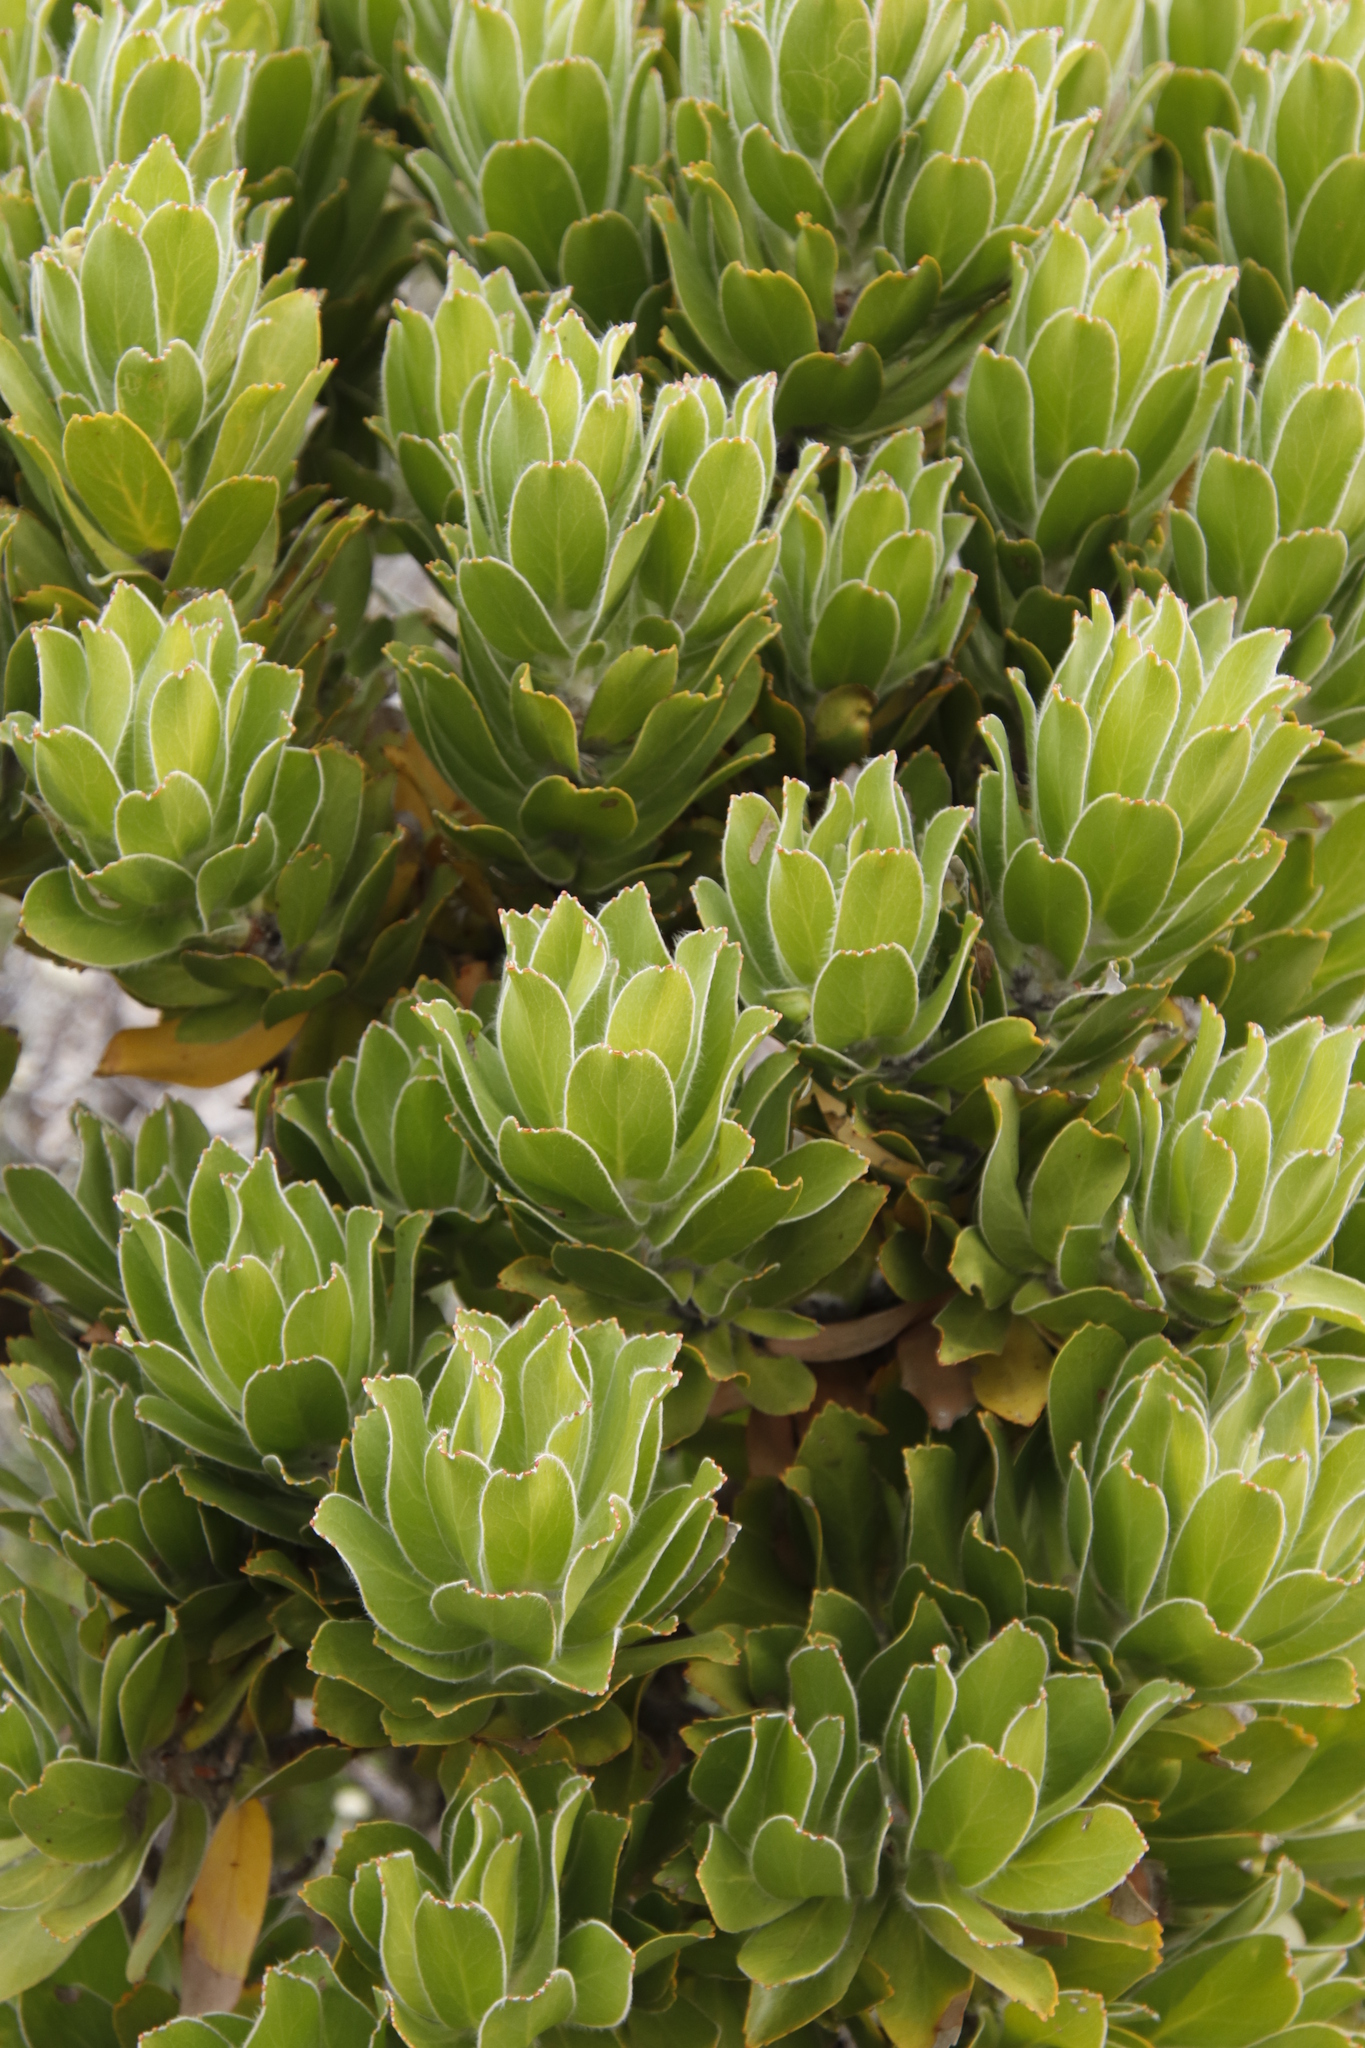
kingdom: Plantae
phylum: Tracheophyta
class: Magnoliopsida
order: Proteales
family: Proteaceae
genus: Leucospermum
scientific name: Leucospermum conocarpodendron
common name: Tree pincushion
